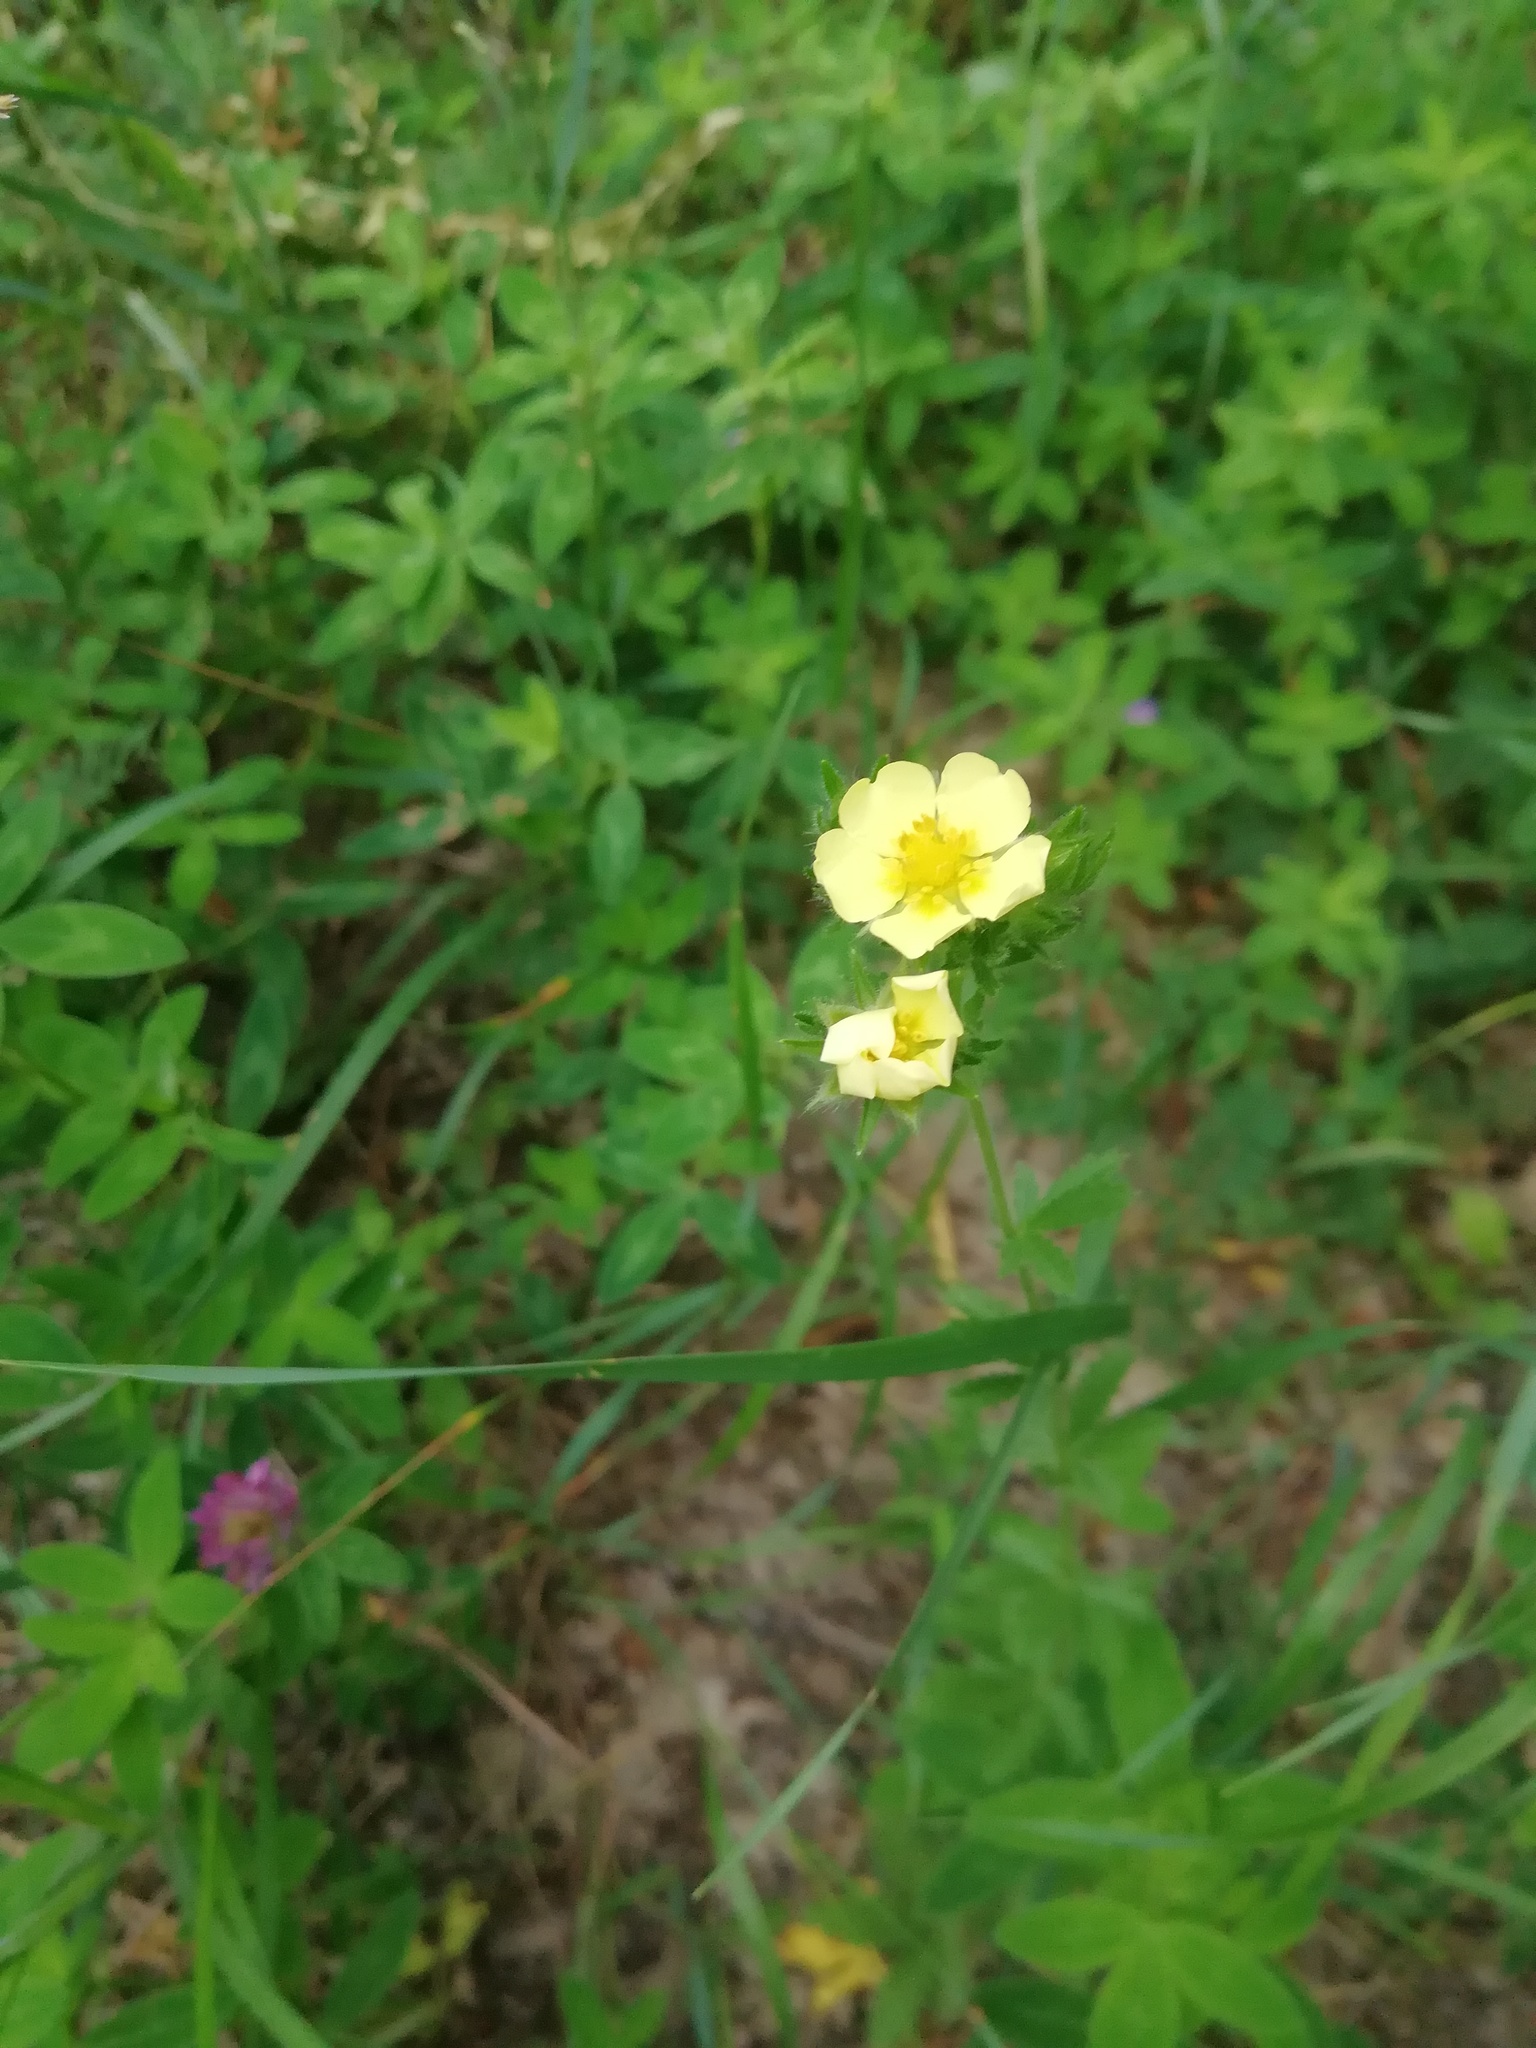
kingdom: Plantae
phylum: Tracheophyta
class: Magnoliopsida
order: Rosales
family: Rosaceae
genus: Potentilla
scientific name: Potentilla recta
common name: Sulphur cinquefoil
